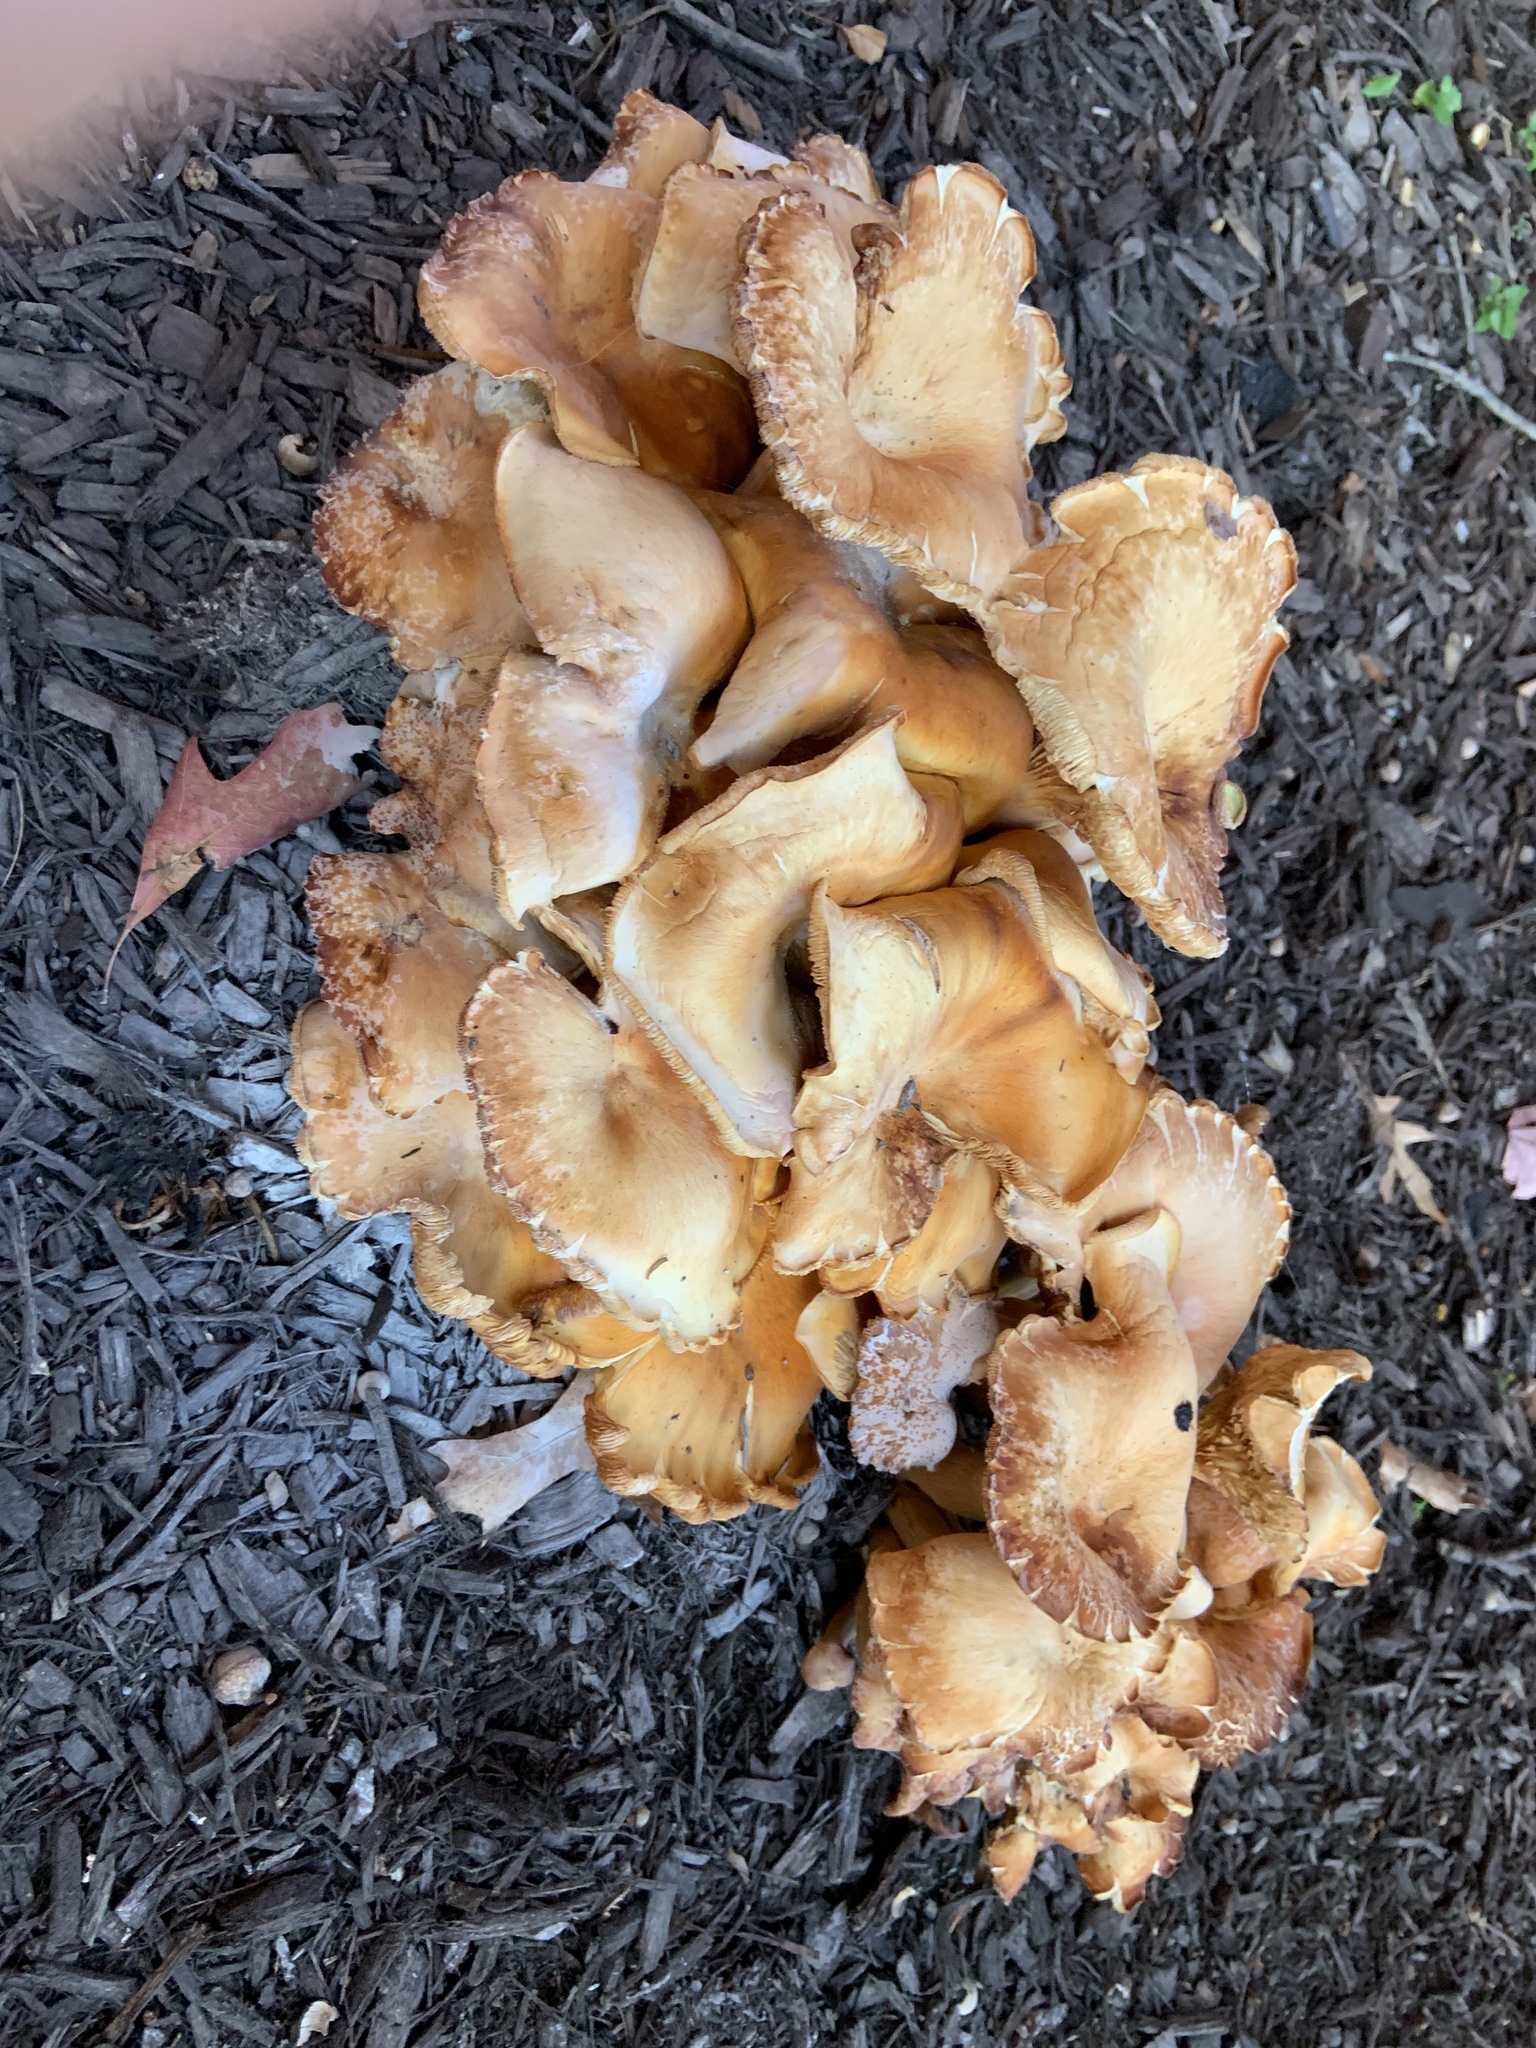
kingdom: Fungi
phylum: Basidiomycota
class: Agaricomycetes
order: Agaricales
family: Omphalotaceae
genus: Omphalotus
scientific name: Omphalotus illudens
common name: Jack o lantern
